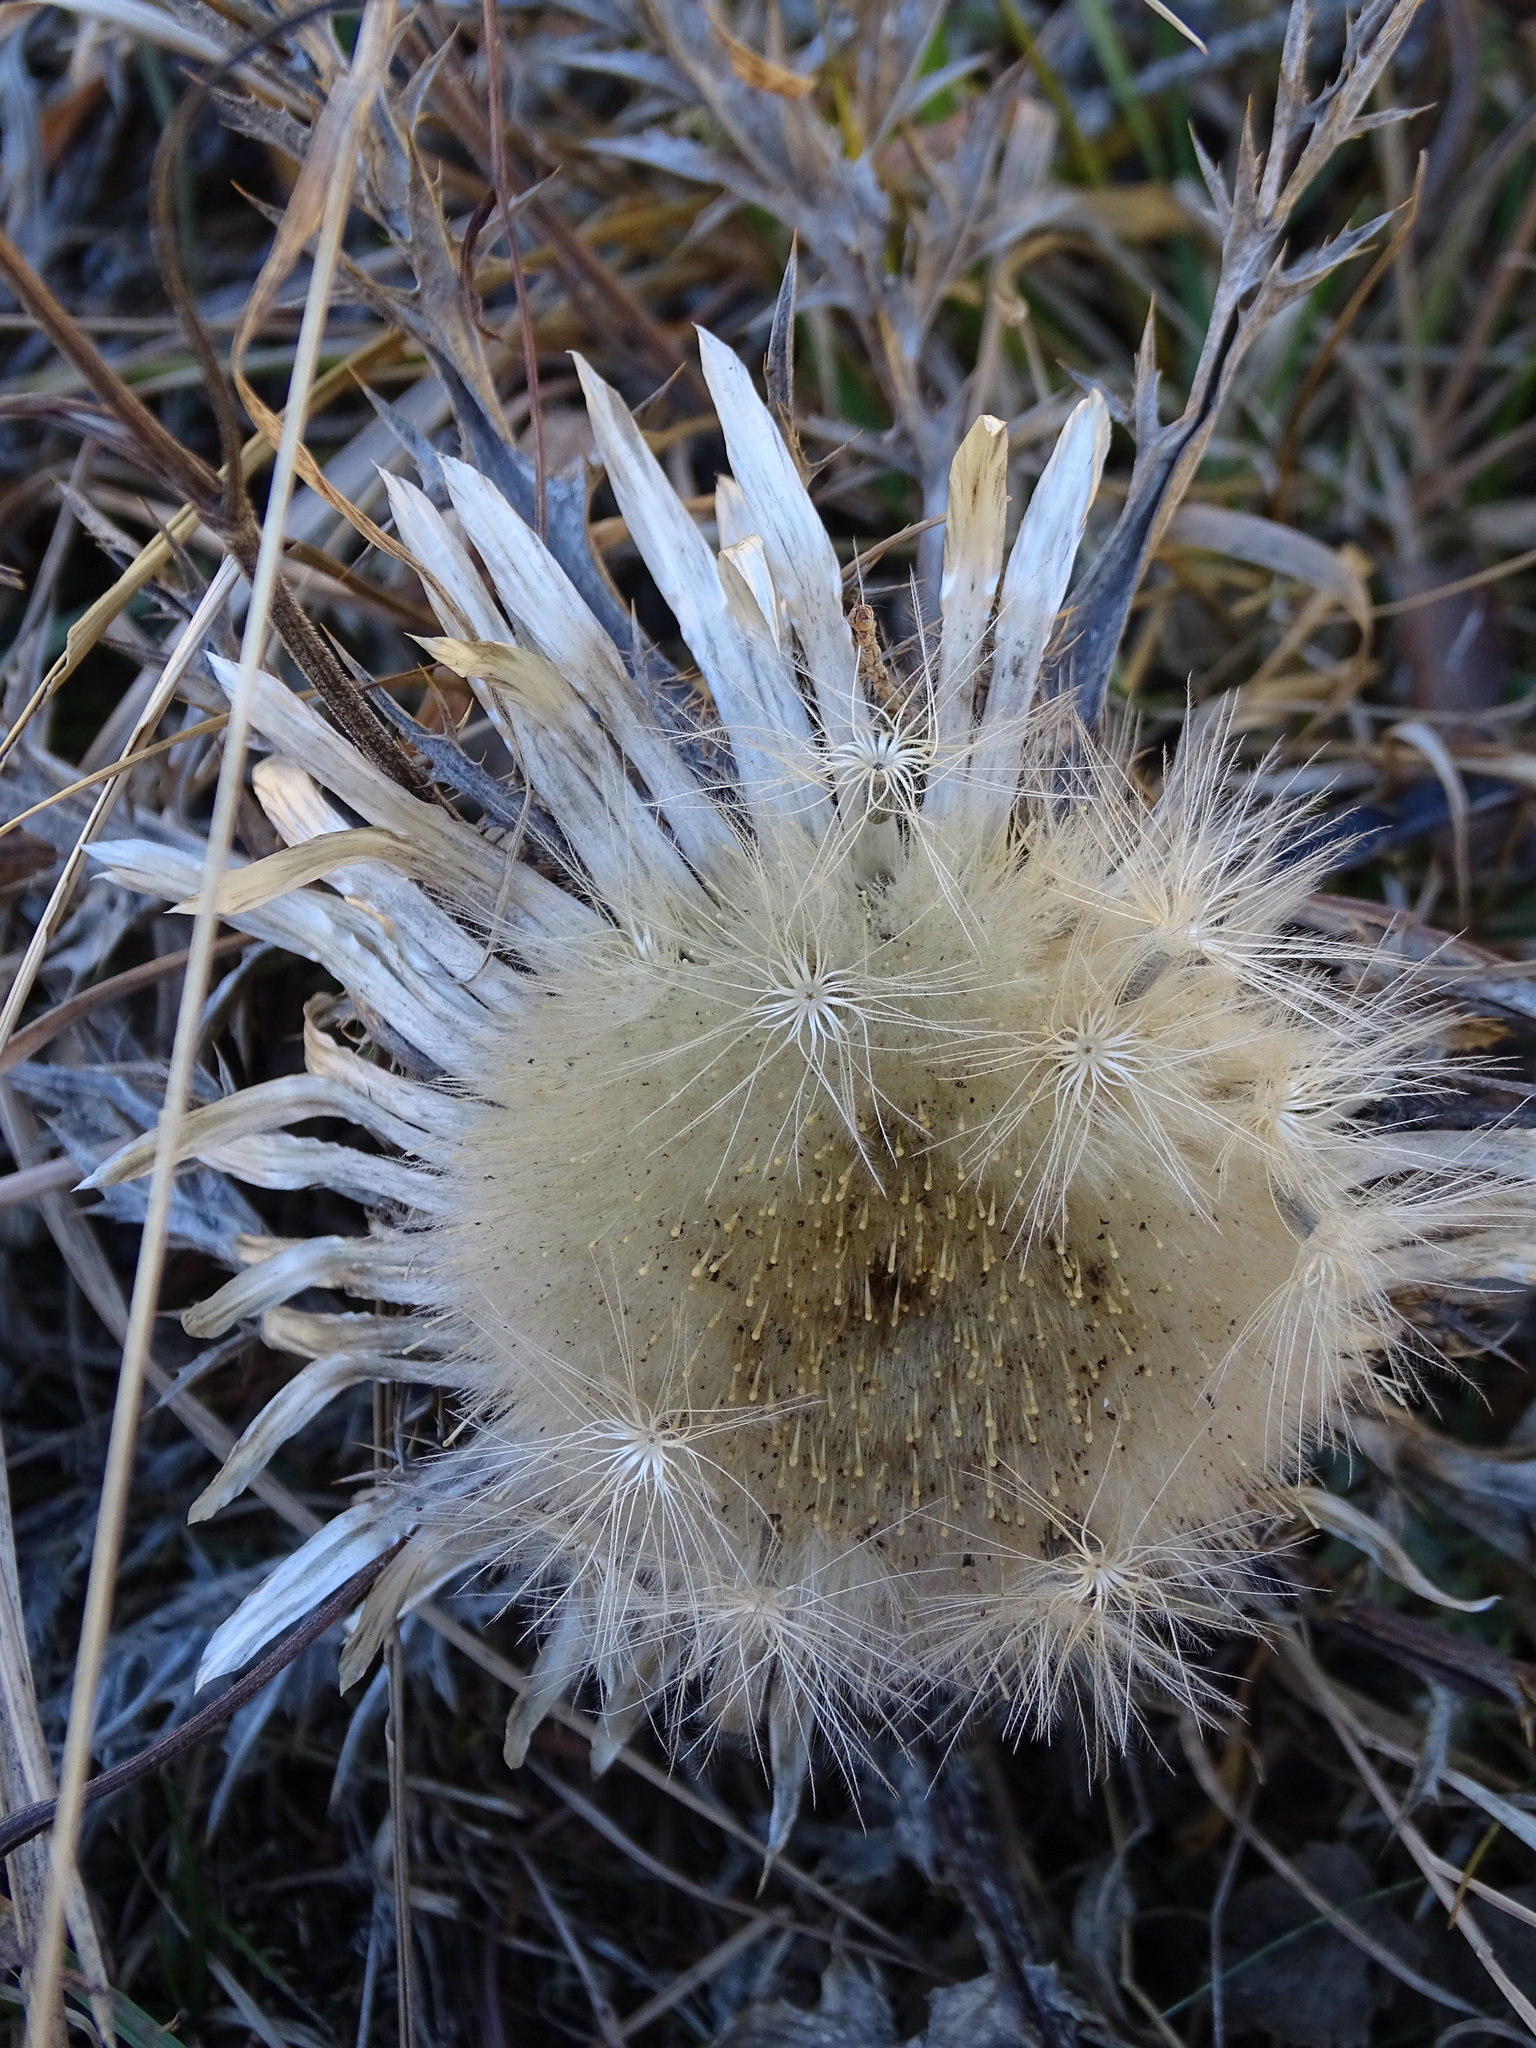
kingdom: Plantae
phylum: Tracheophyta
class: Magnoliopsida
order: Asterales
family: Asteraceae
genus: Carlina
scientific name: Carlina acaulis
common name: Stemless carline thistle
